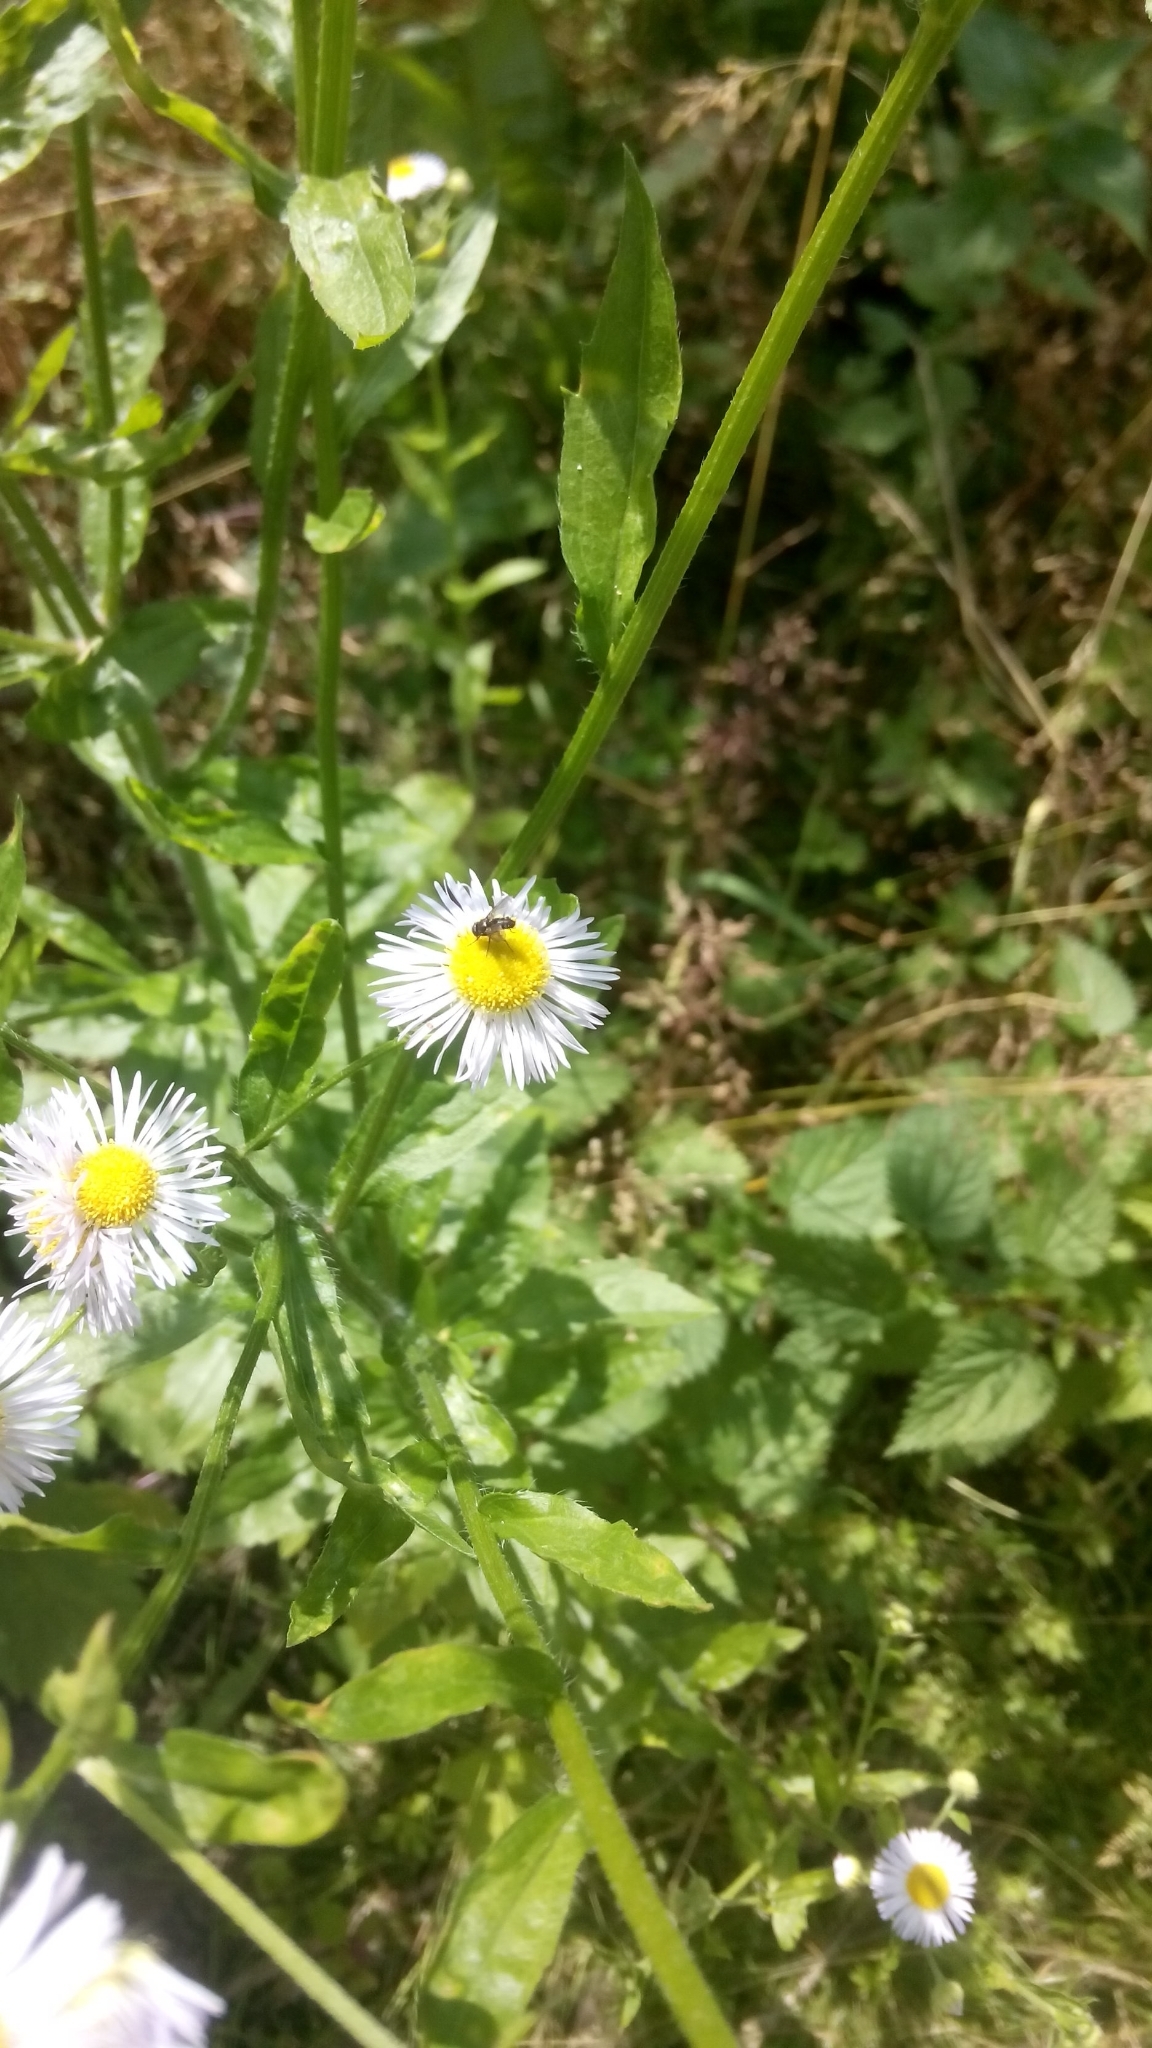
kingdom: Plantae
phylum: Tracheophyta
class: Magnoliopsida
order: Asterales
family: Asteraceae
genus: Erigeron
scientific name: Erigeron annuus
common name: Tall fleabane
